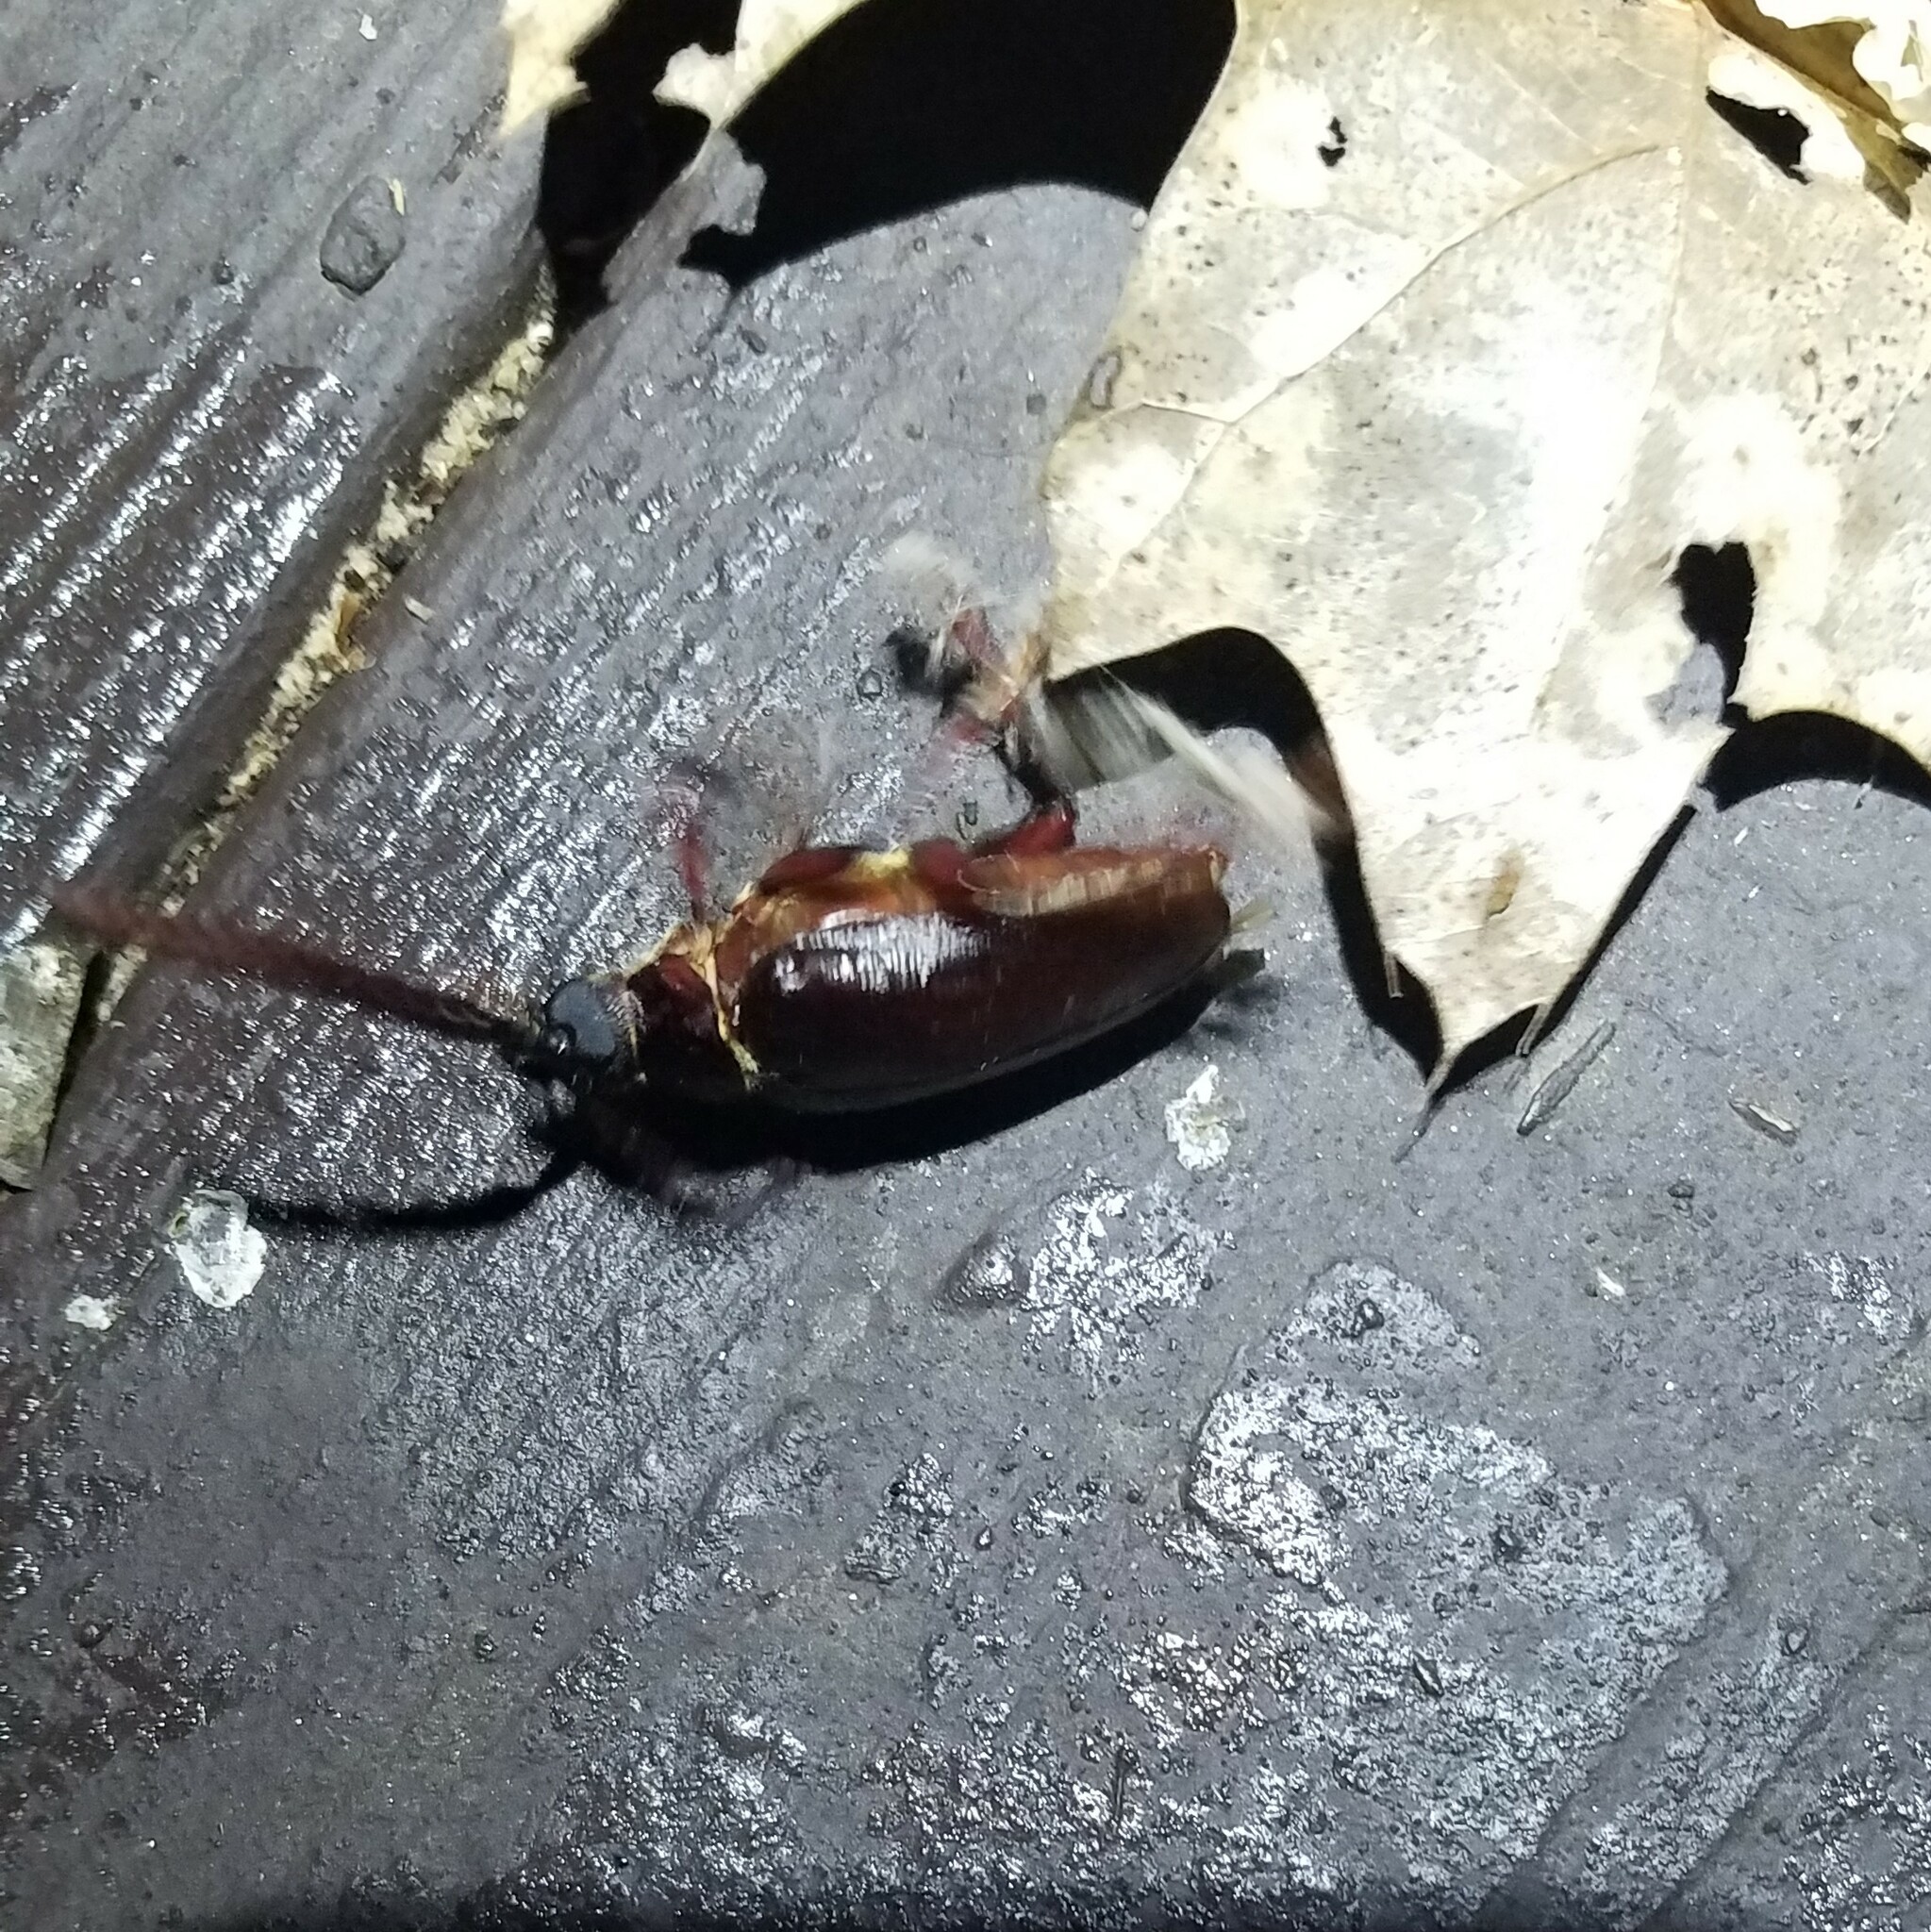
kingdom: Animalia
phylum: Arthropoda
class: Insecta
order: Coleoptera
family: Cerambycidae
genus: Prionus
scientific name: Prionus imbricornis
